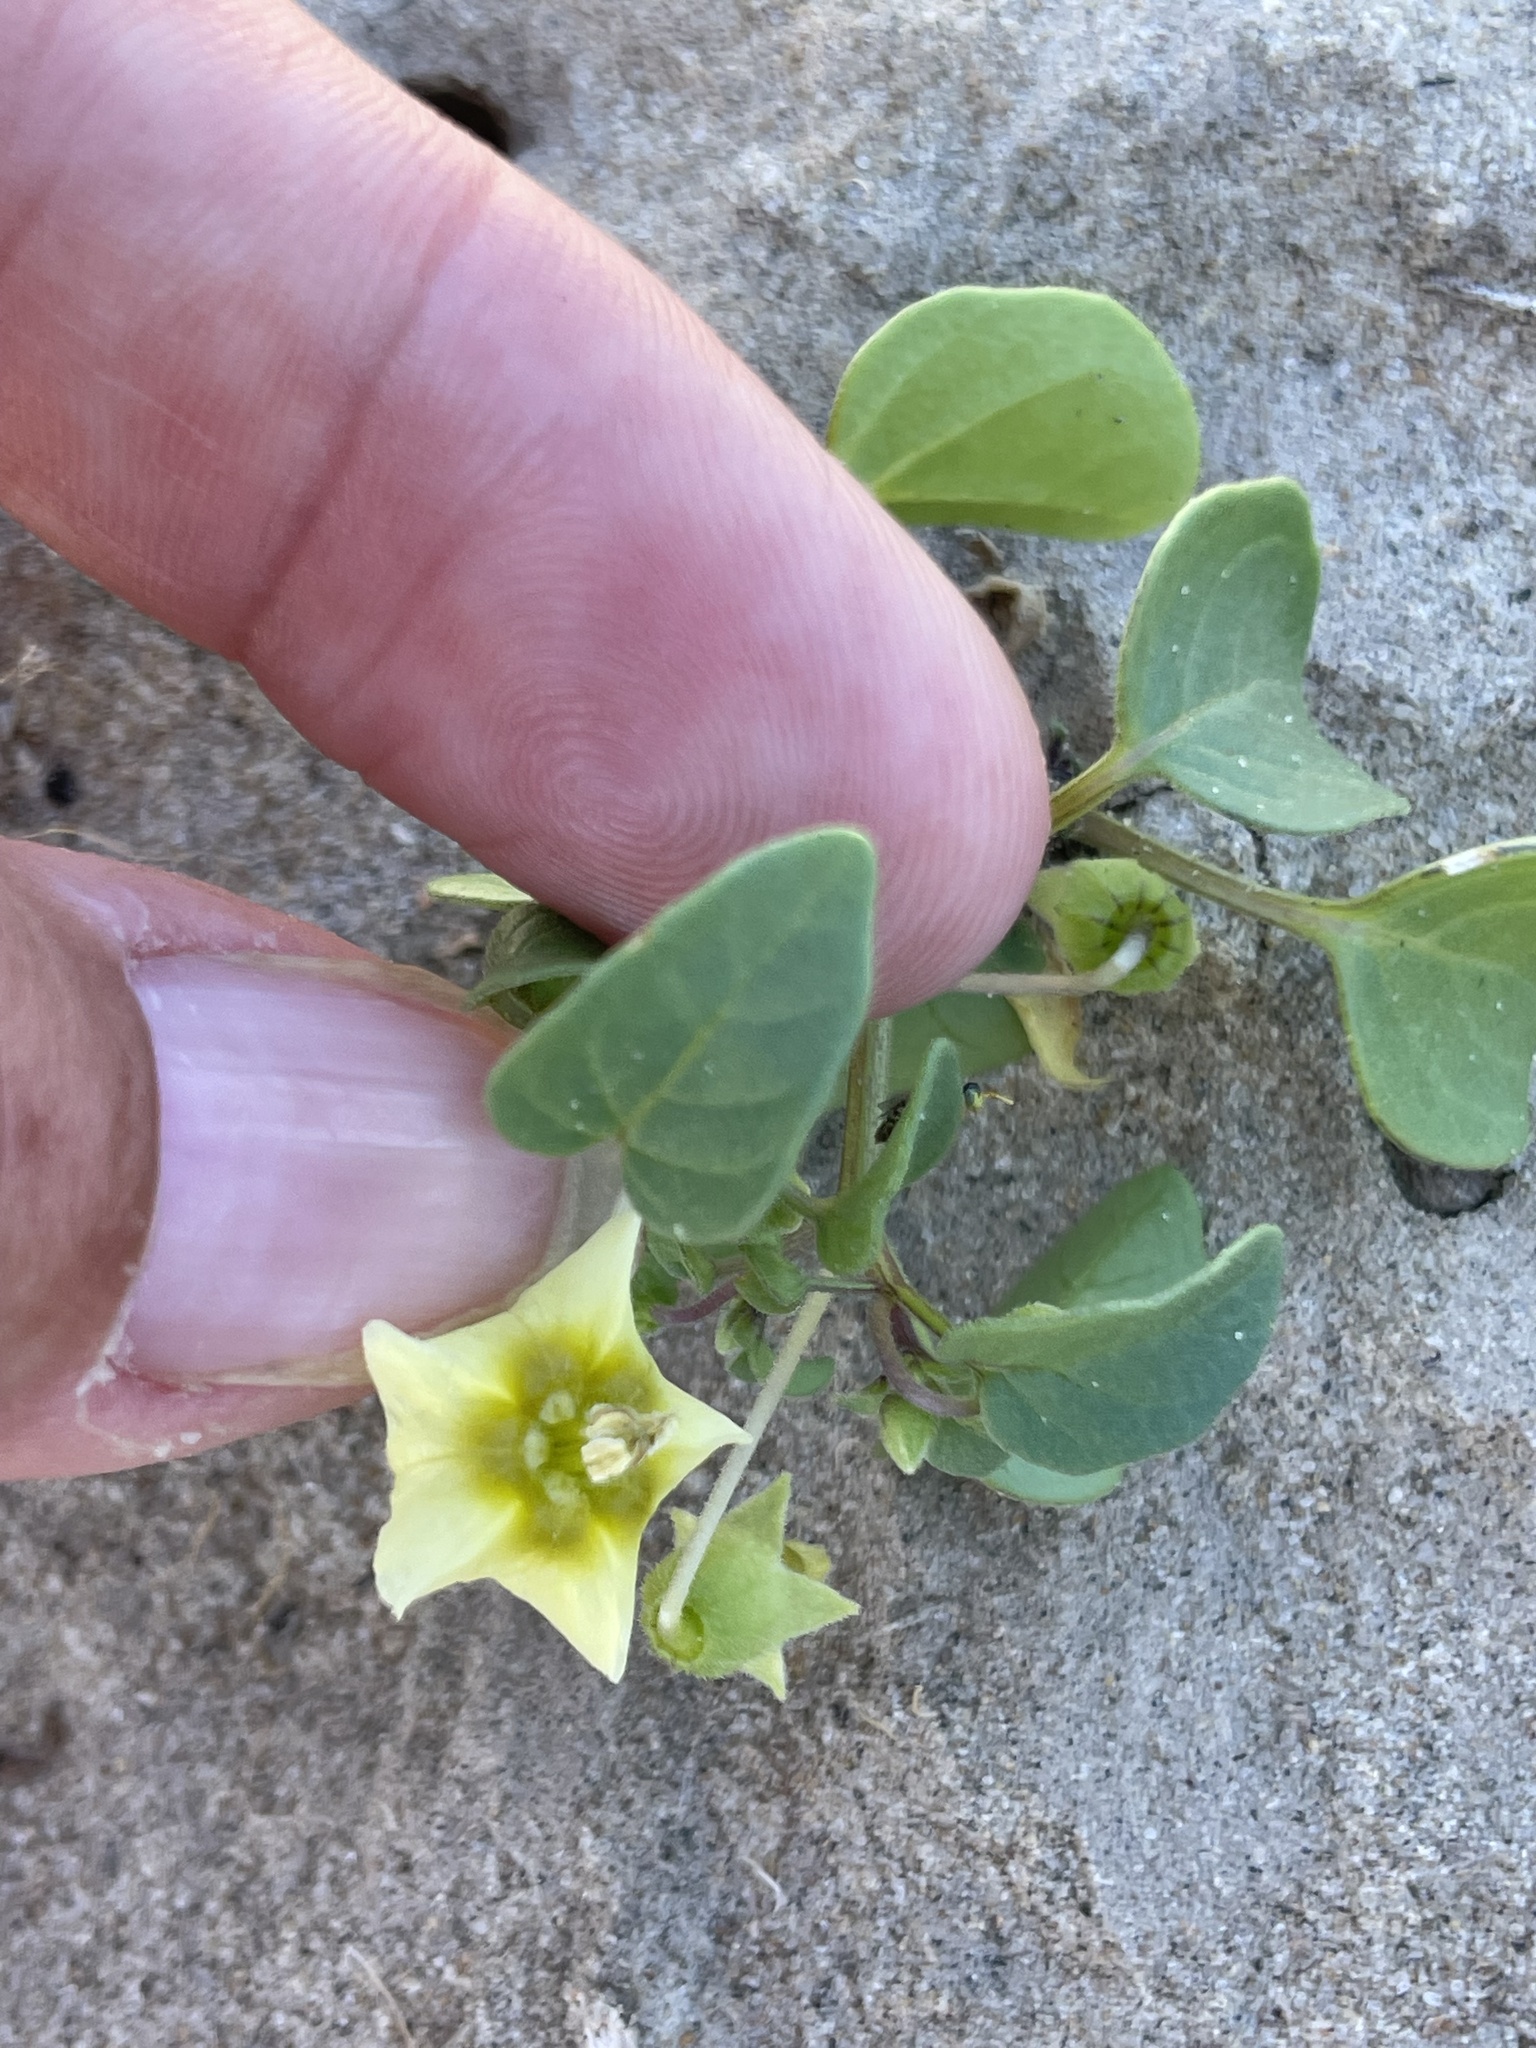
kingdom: Plantae
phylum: Tracheophyta
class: Magnoliopsida
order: Solanales
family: Solanaceae
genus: Physalis
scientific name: Physalis crassifolia
